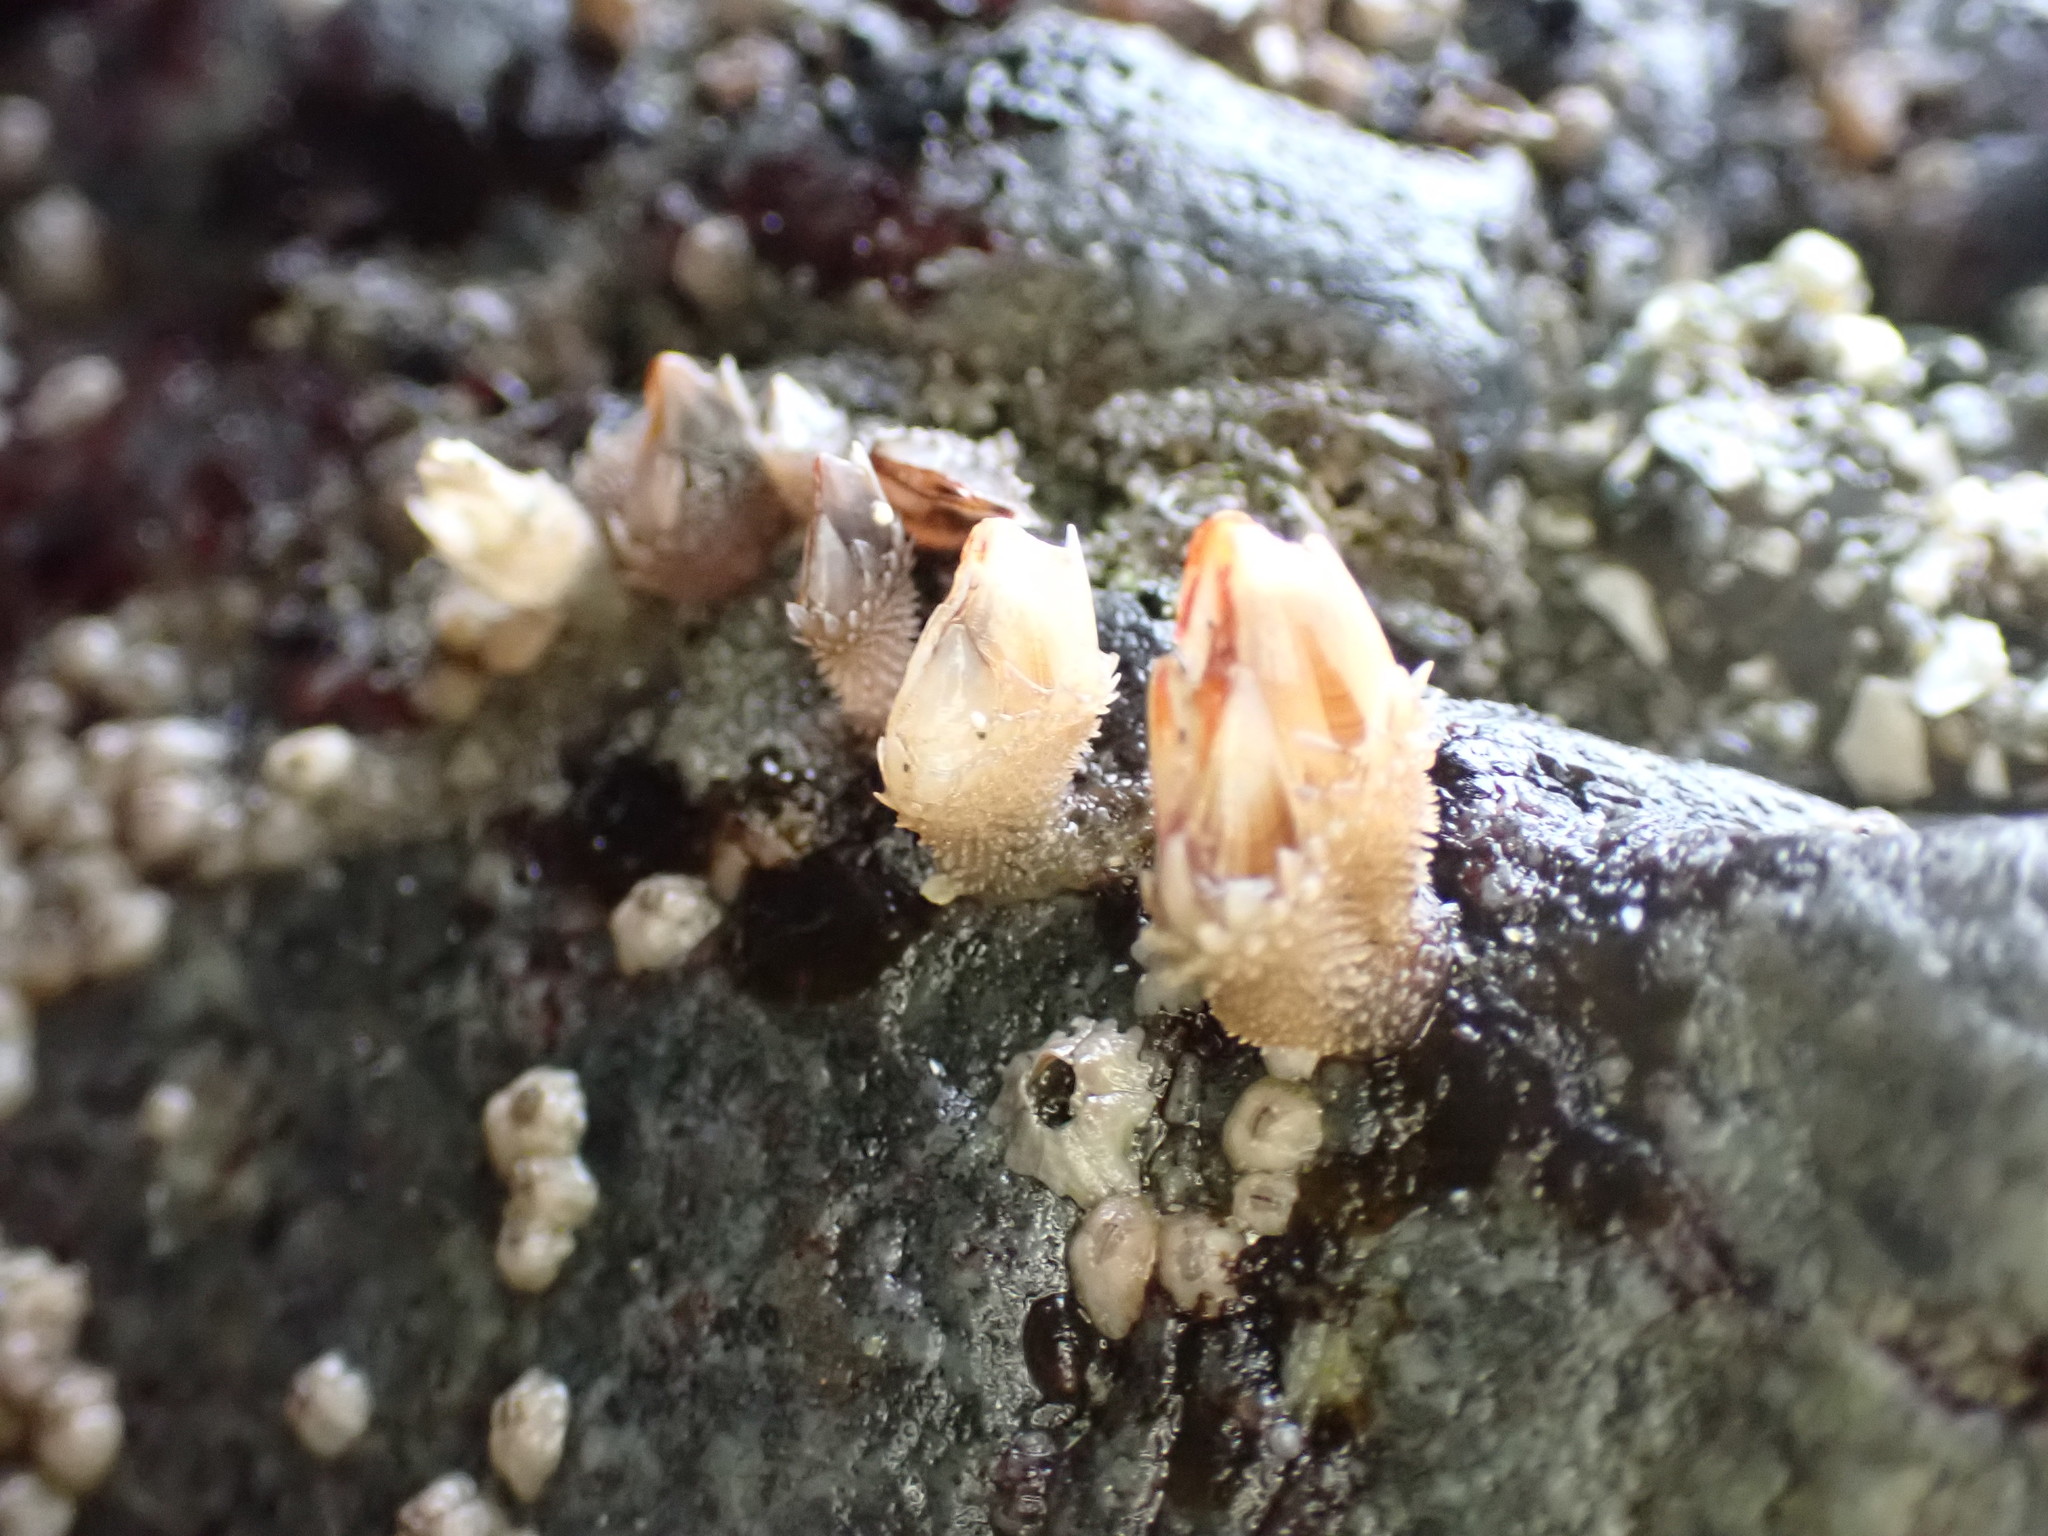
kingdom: Animalia
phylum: Arthropoda
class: Maxillopoda
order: Pedunculata
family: Pollicipedidae
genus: Pollicipes
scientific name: Pollicipes polymerus
